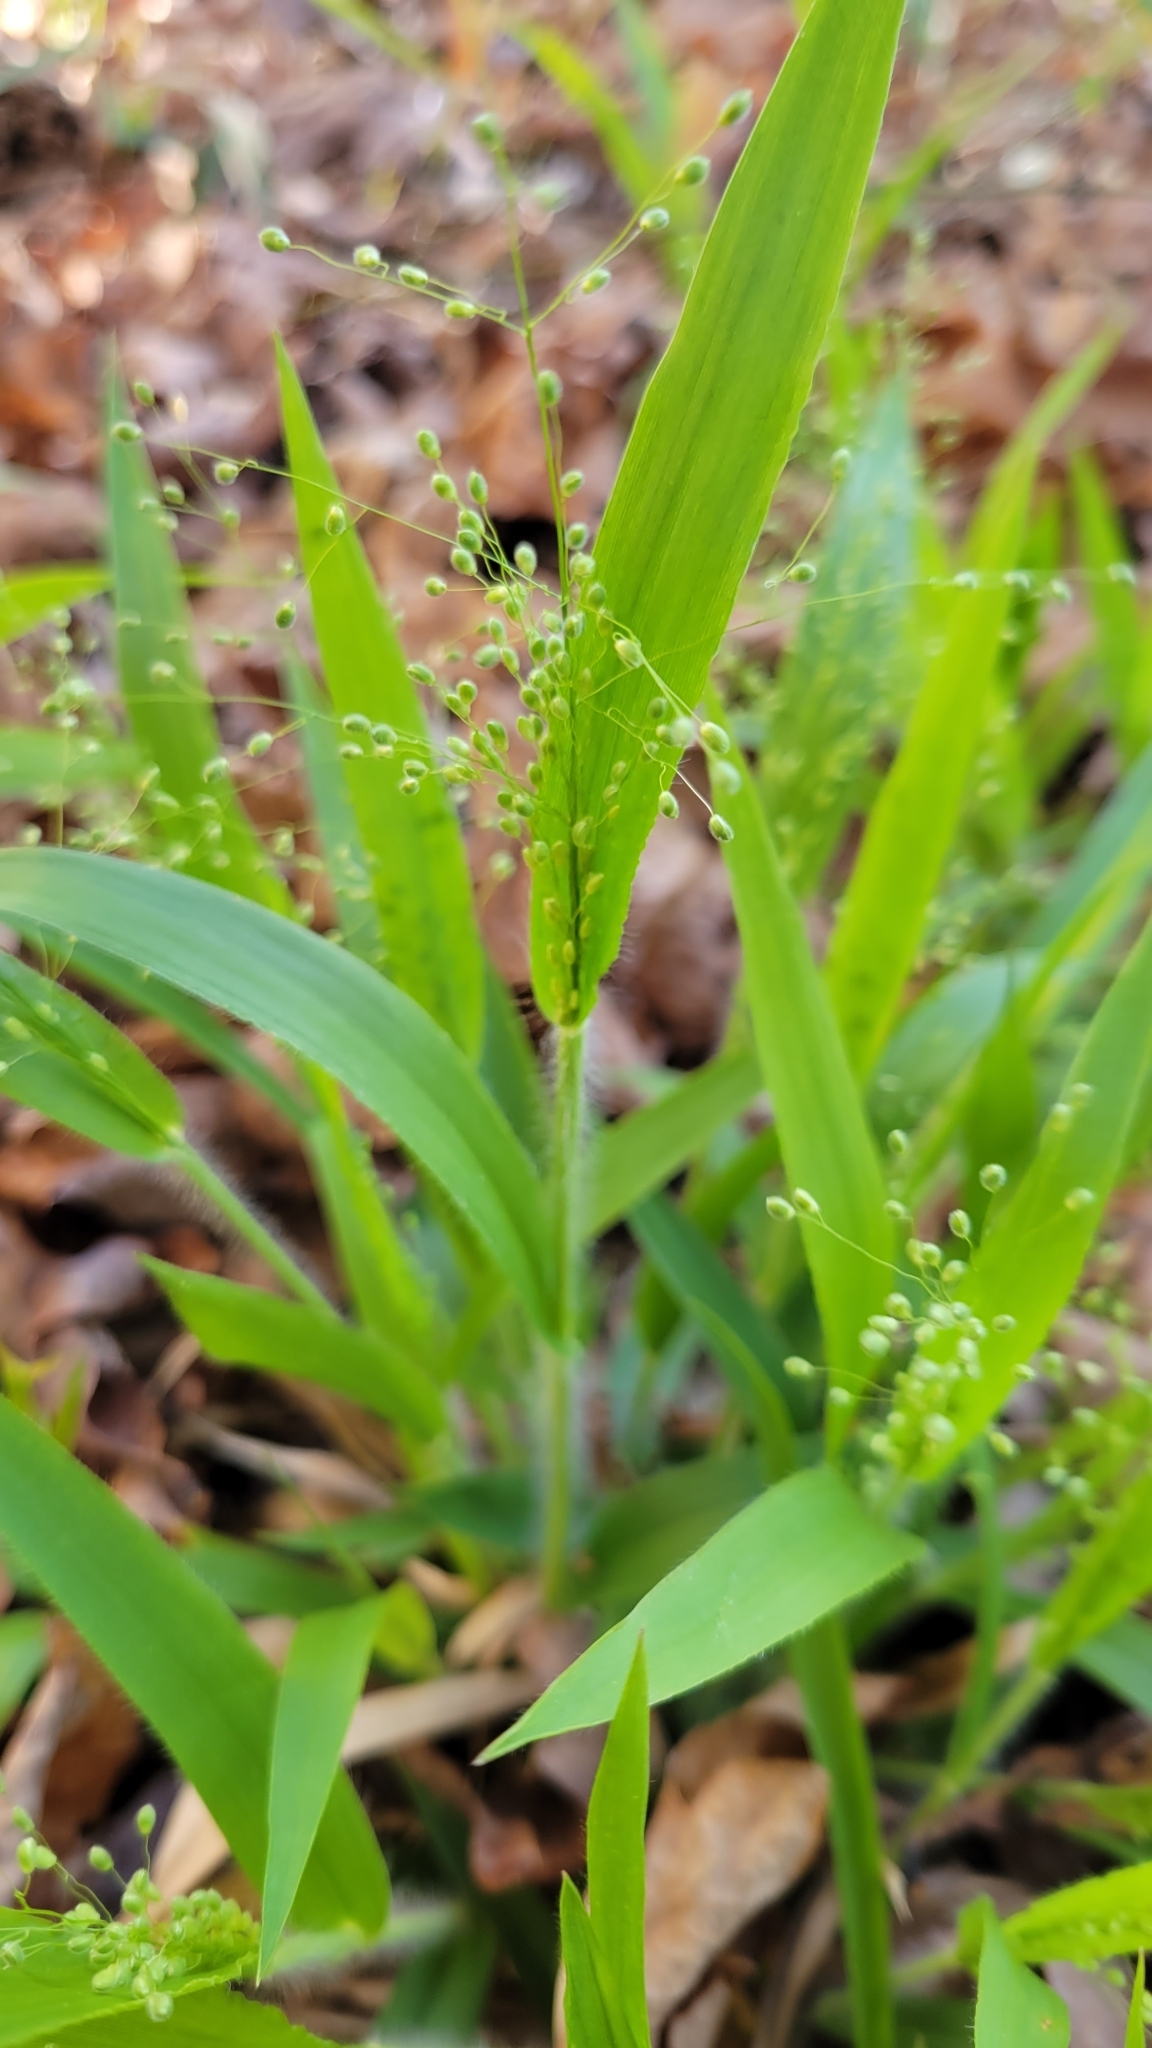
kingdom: Plantae
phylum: Tracheophyta
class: Liliopsida
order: Poales
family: Poaceae
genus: Dichanthelium
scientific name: Dichanthelium laxiflorum
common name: Soft-tuft panic grass
